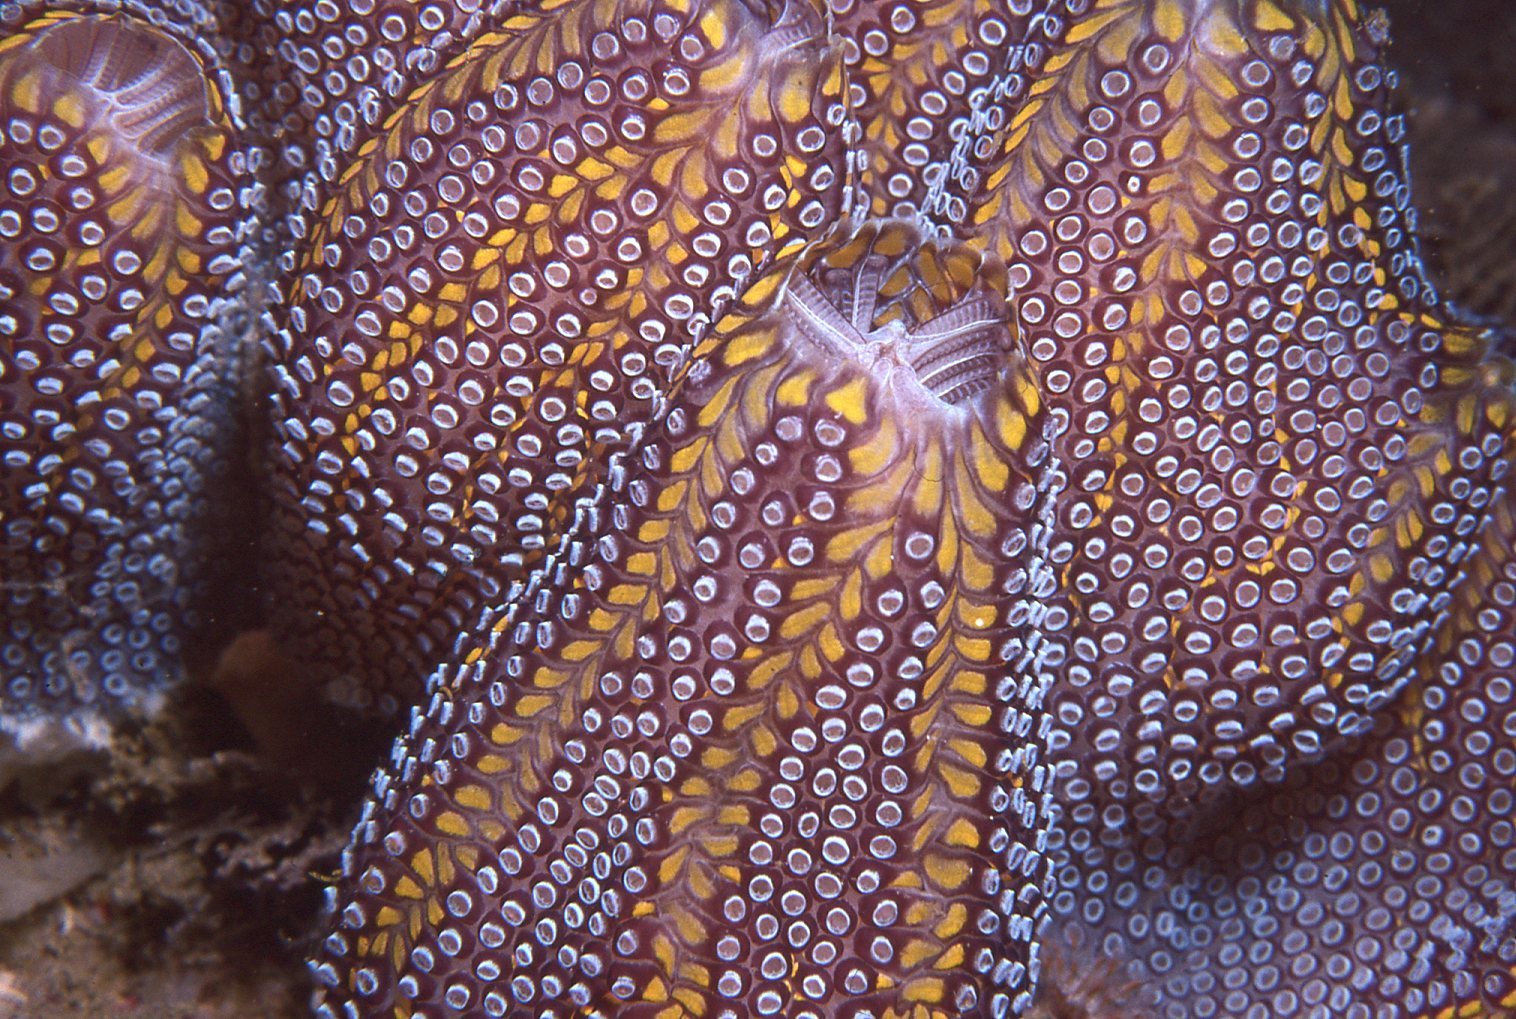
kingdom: Animalia
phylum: Chordata
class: Ascidiacea
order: Stolidobranchia
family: Styelidae
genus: Botrylloides
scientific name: Botrylloides magnicoecus
